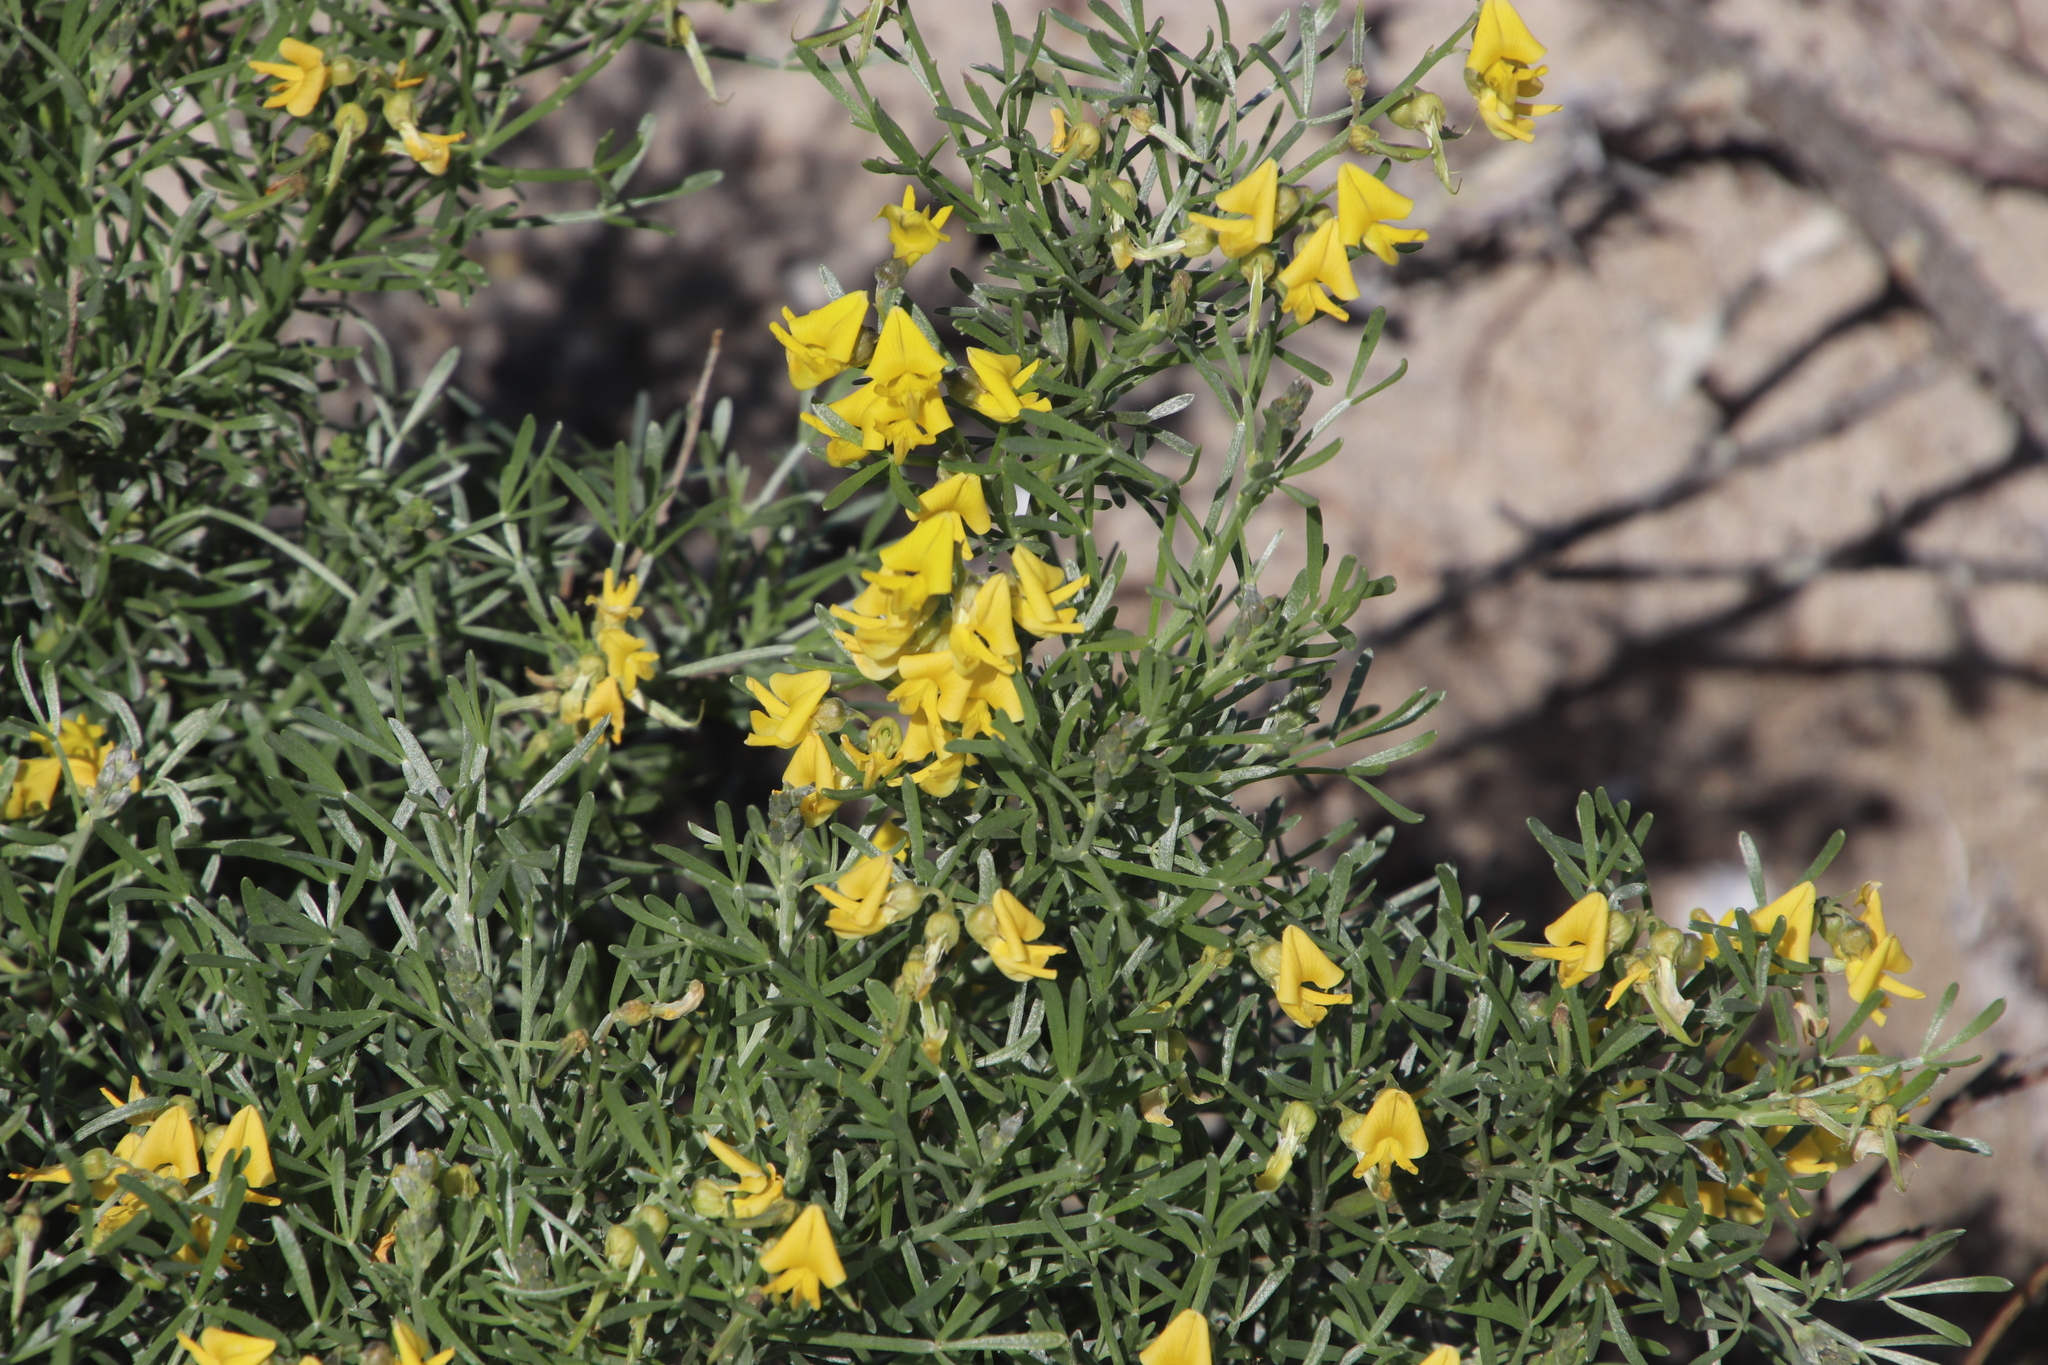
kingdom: Plantae
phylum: Tracheophyta
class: Magnoliopsida
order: Fabales
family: Fabaceae
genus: Calobota
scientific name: Calobota sericea
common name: Silver-pea
